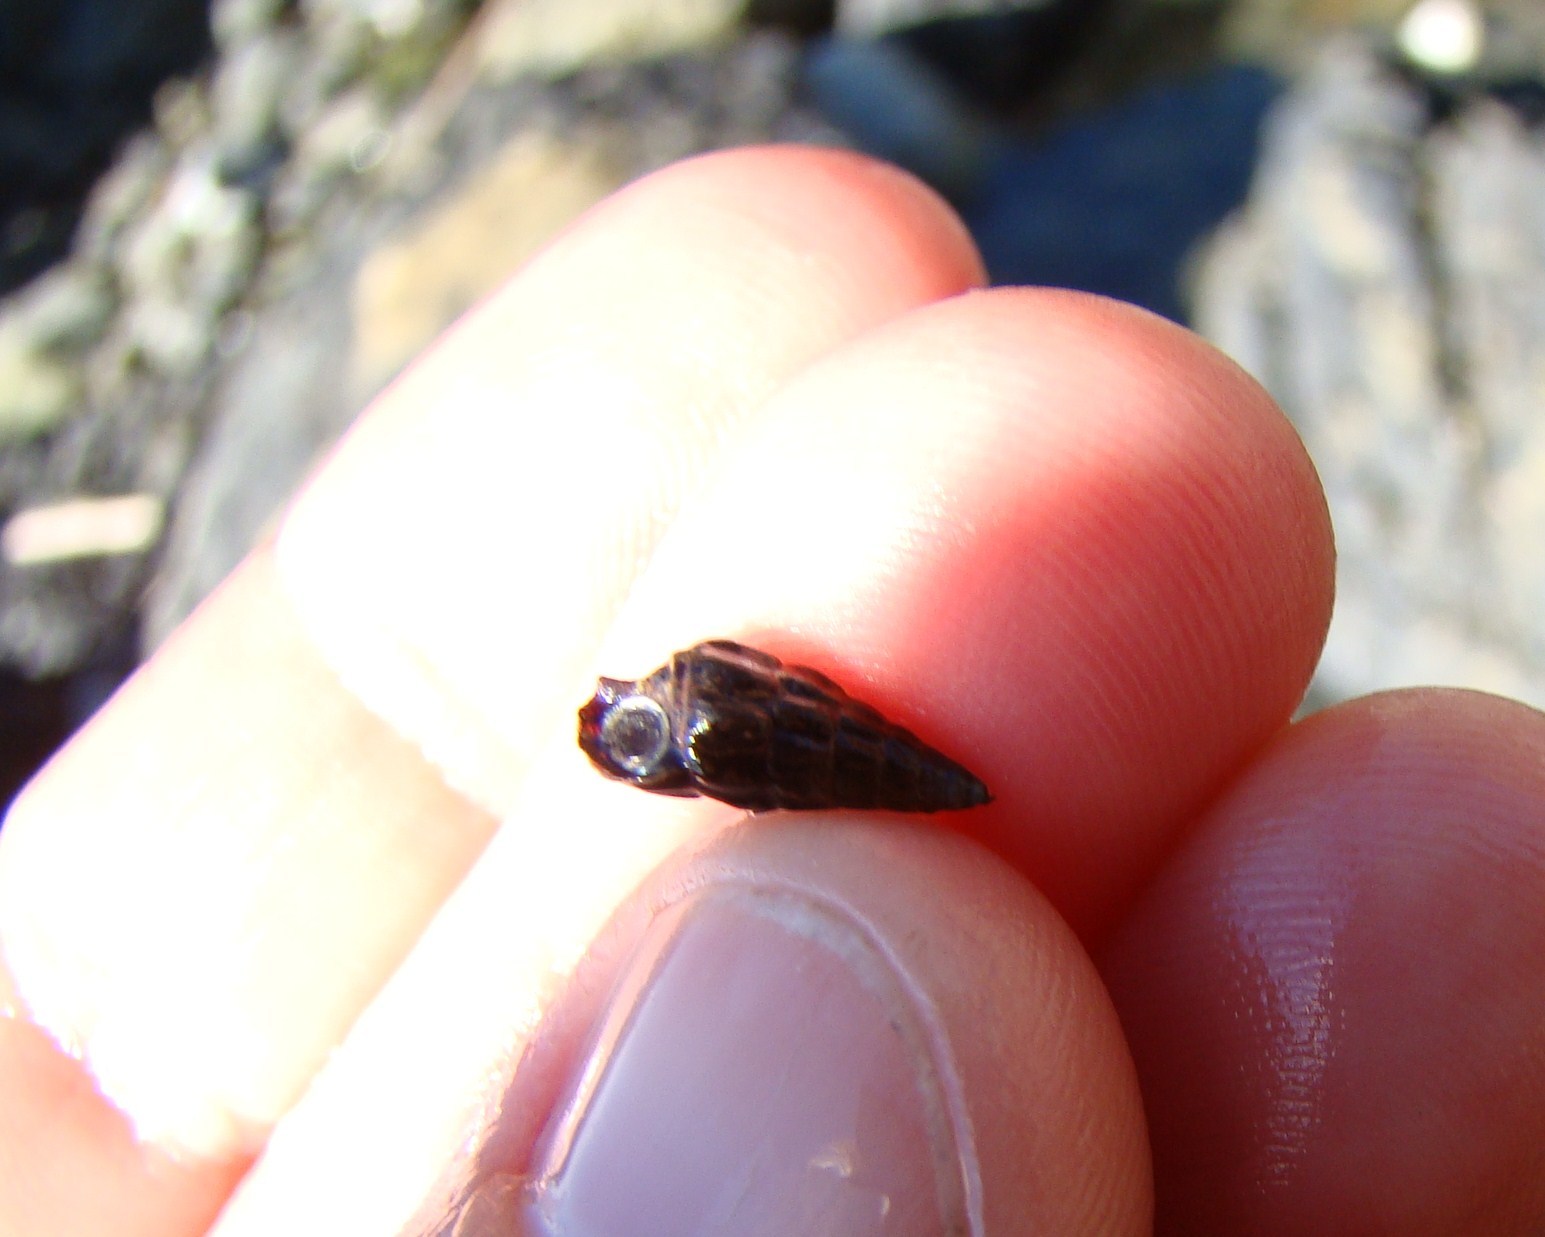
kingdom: Animalia
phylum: Mollusca
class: Gastropoda
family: Batillariidae
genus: Zeacumantus
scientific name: Zeacumantus subcarinatus
